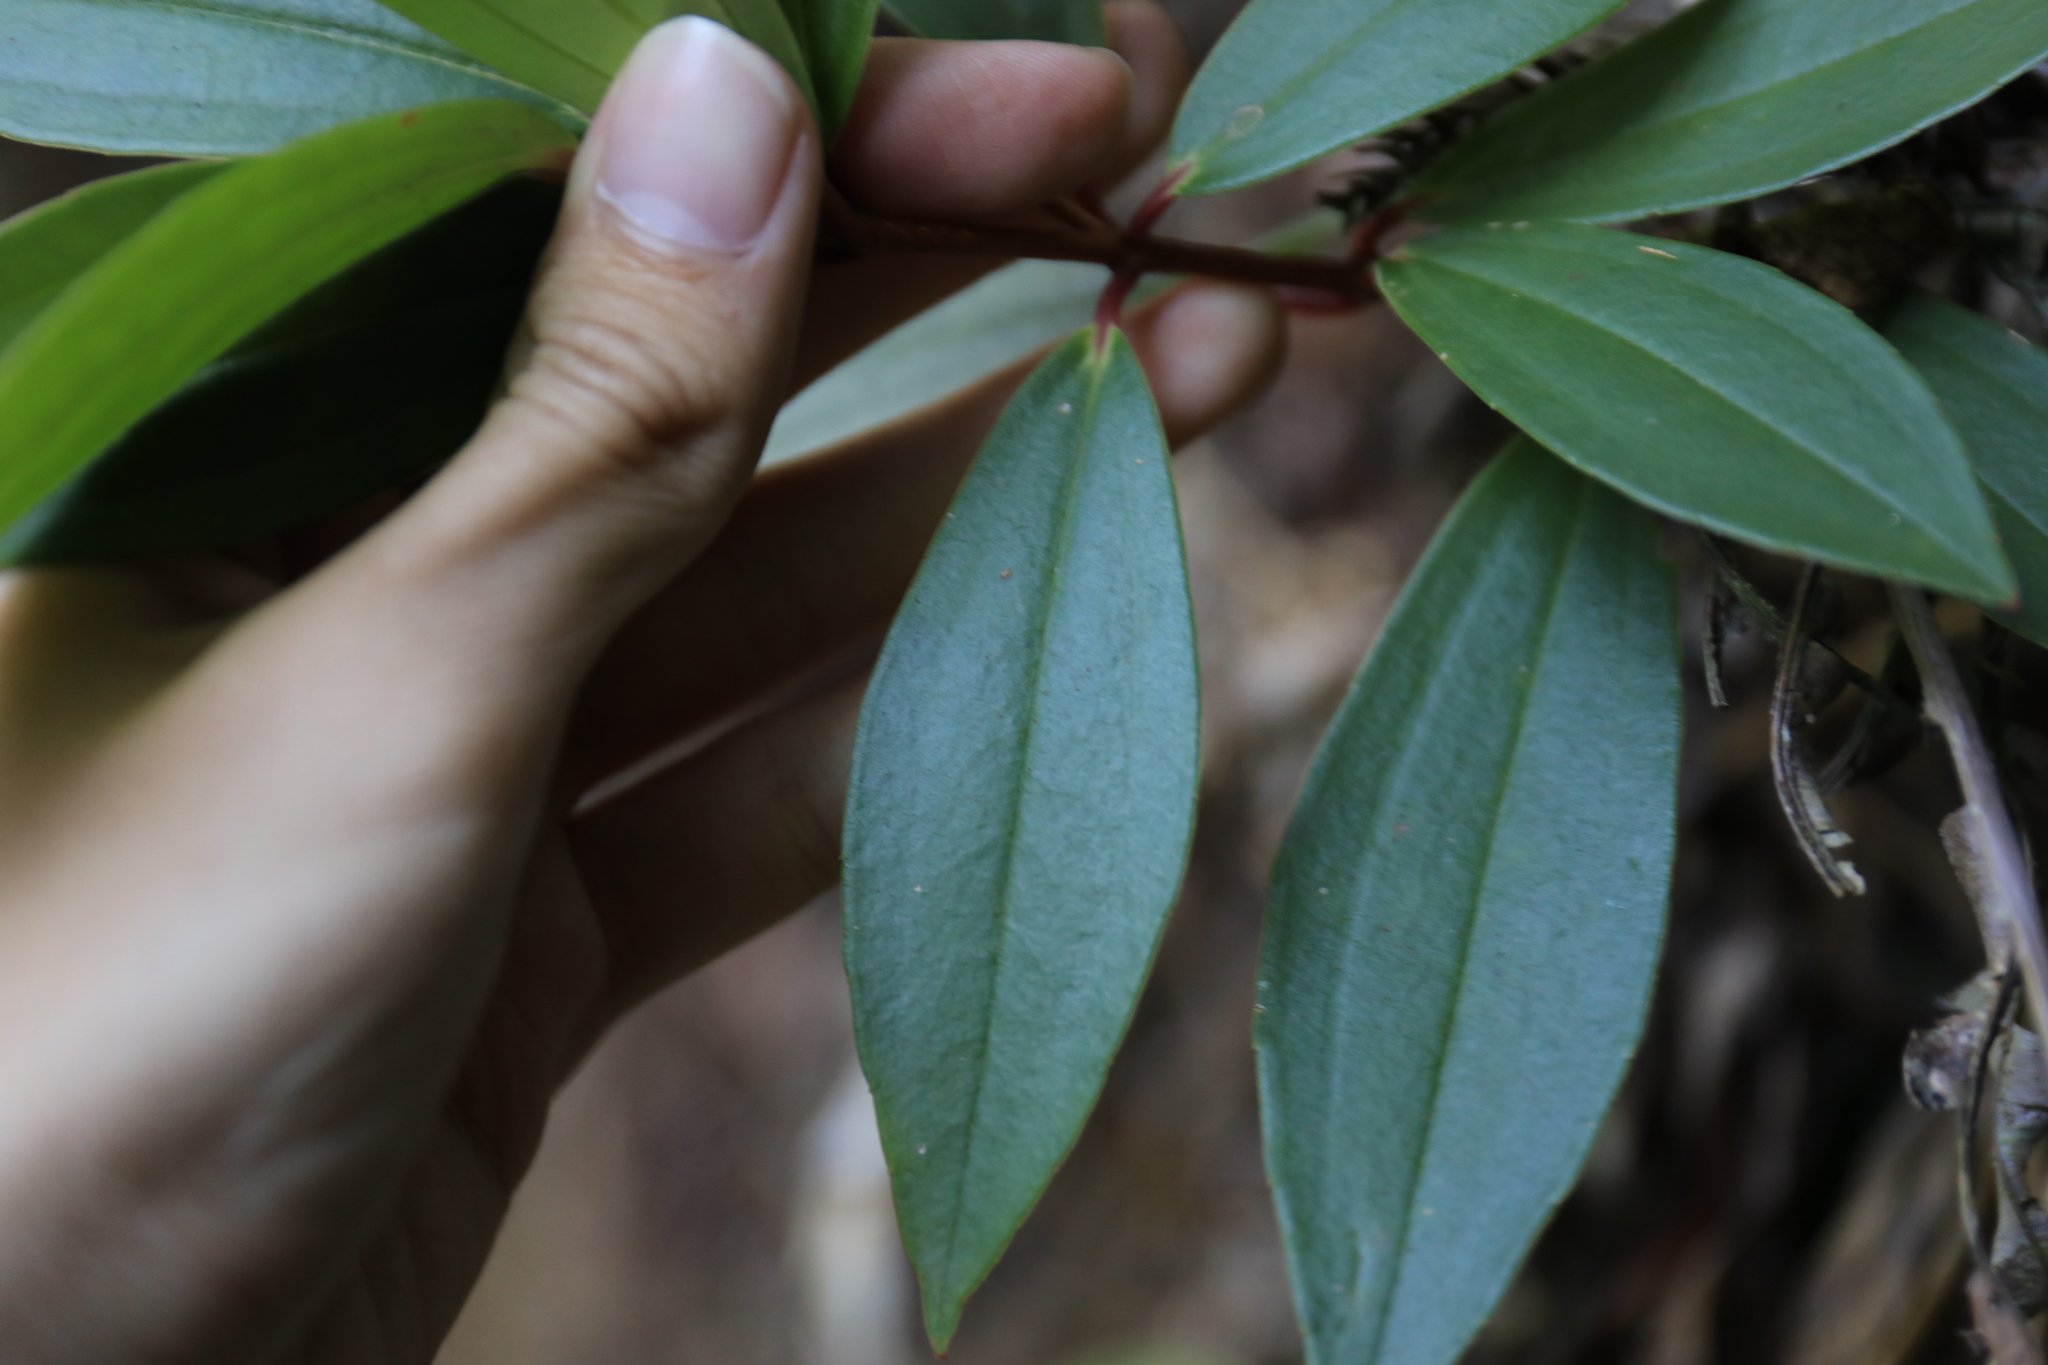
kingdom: Plantae
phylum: Tracheophyta
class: Magnoliopsida
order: Myrtales
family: Melastomataceae
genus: Medinilla
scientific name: Medinilla fengii
